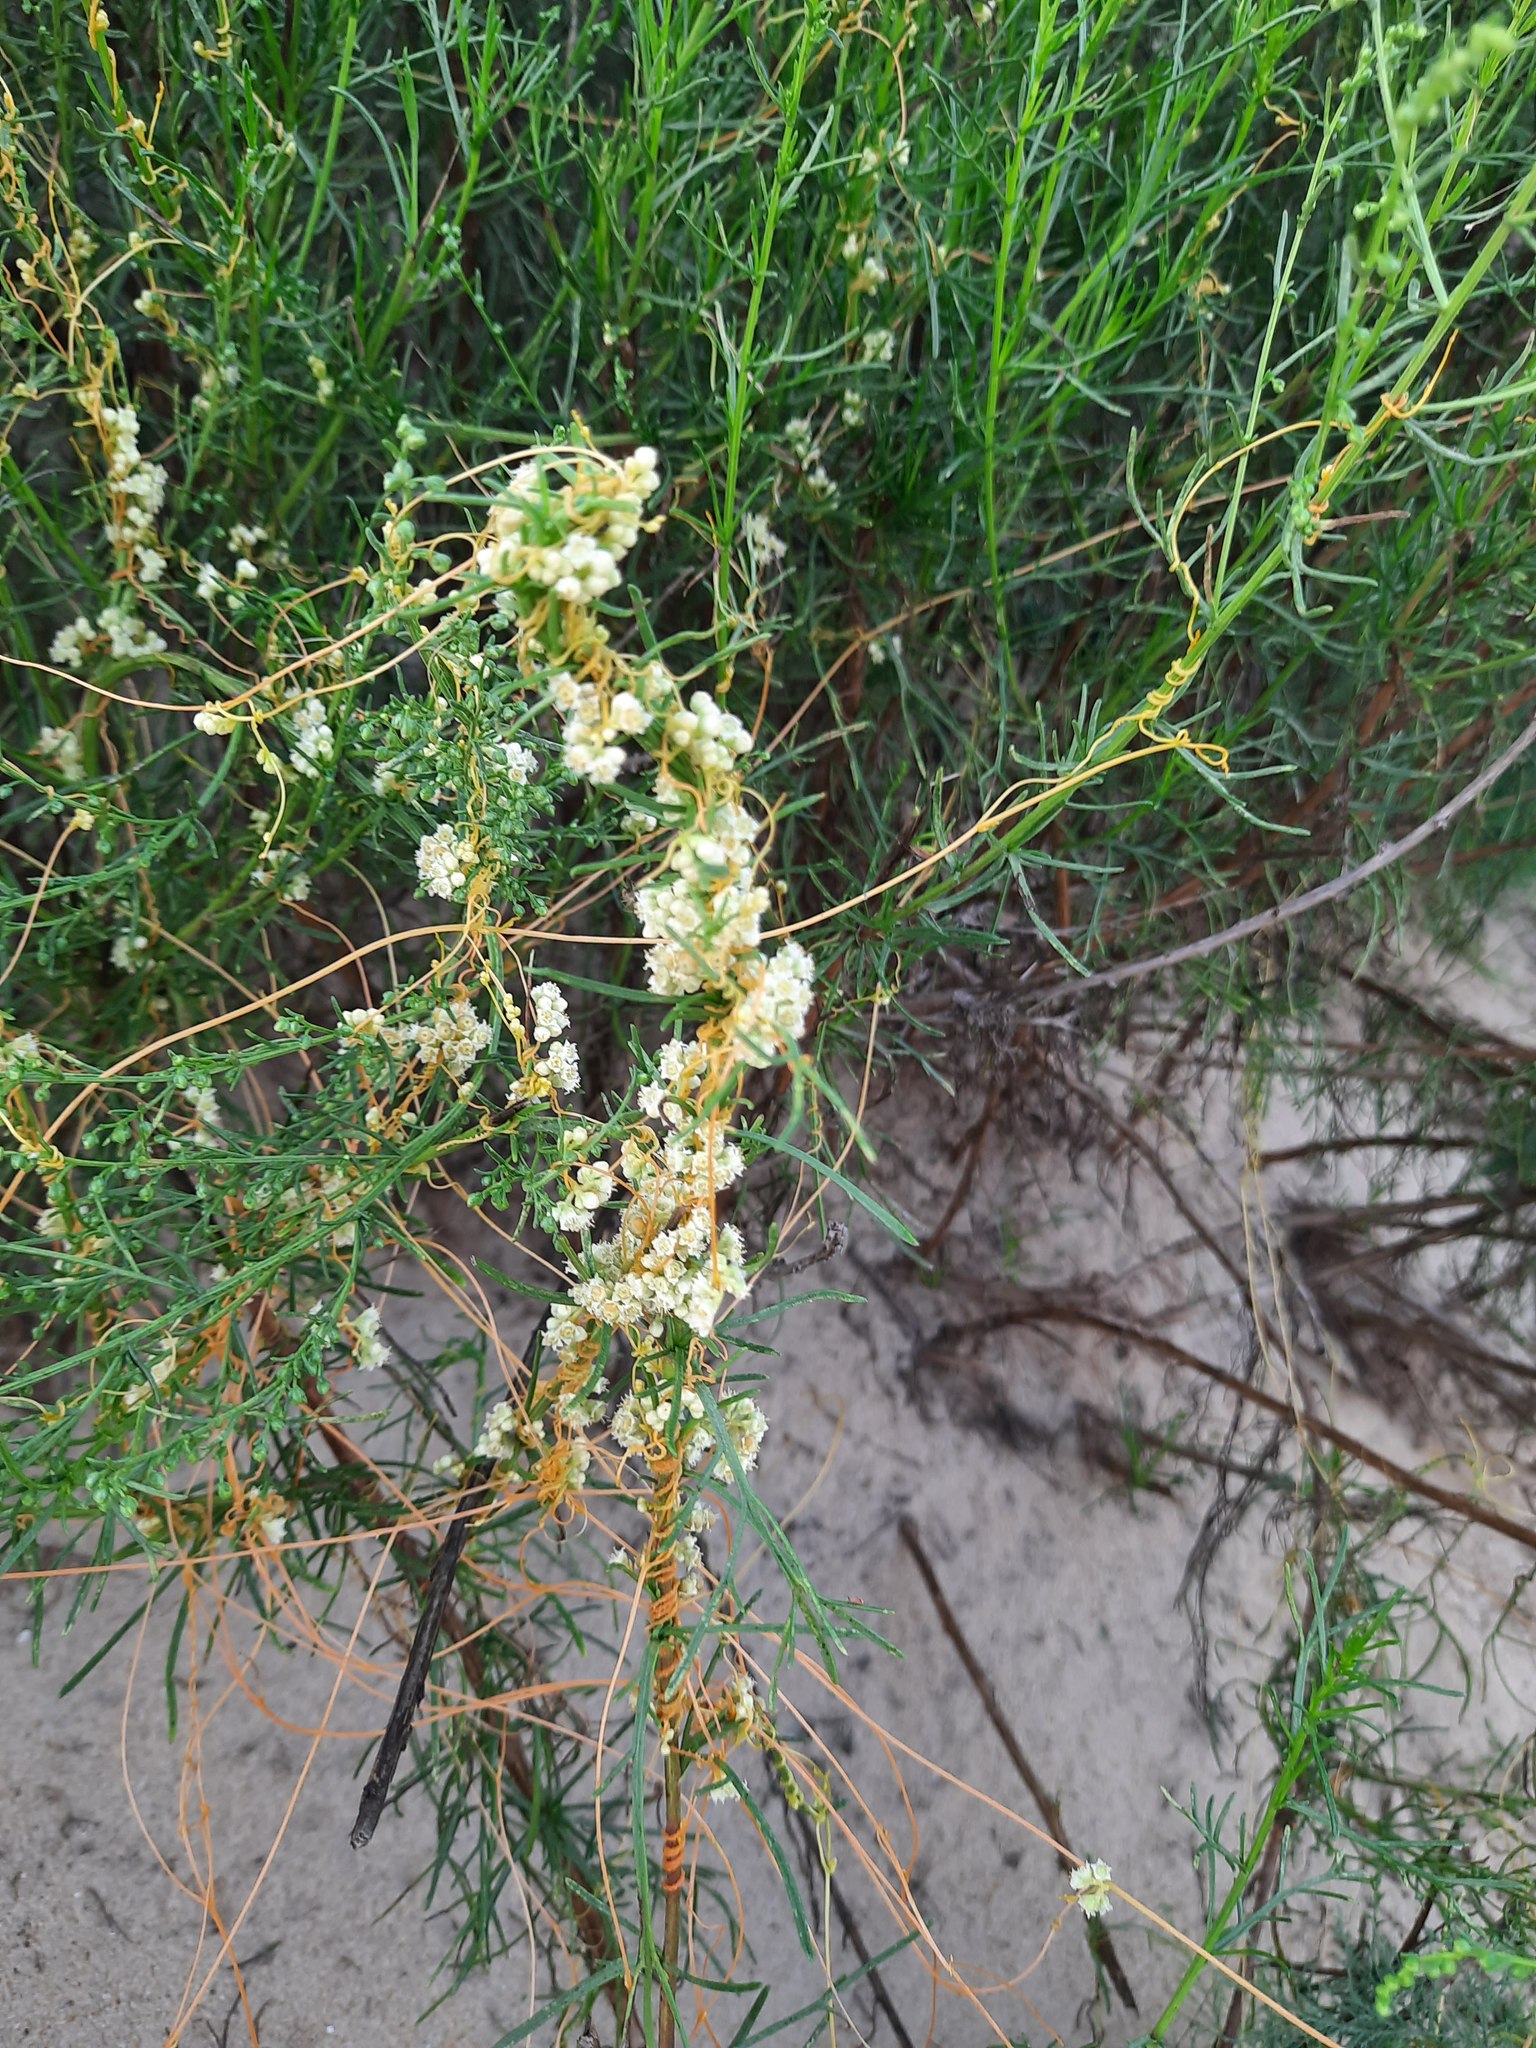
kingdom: Plantae
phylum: Tracheophyta
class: Magnoliopsida
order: Solanales
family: Convolvulaceae
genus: Cuscuta
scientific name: Cuscuta campestris
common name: Yellow dodder
